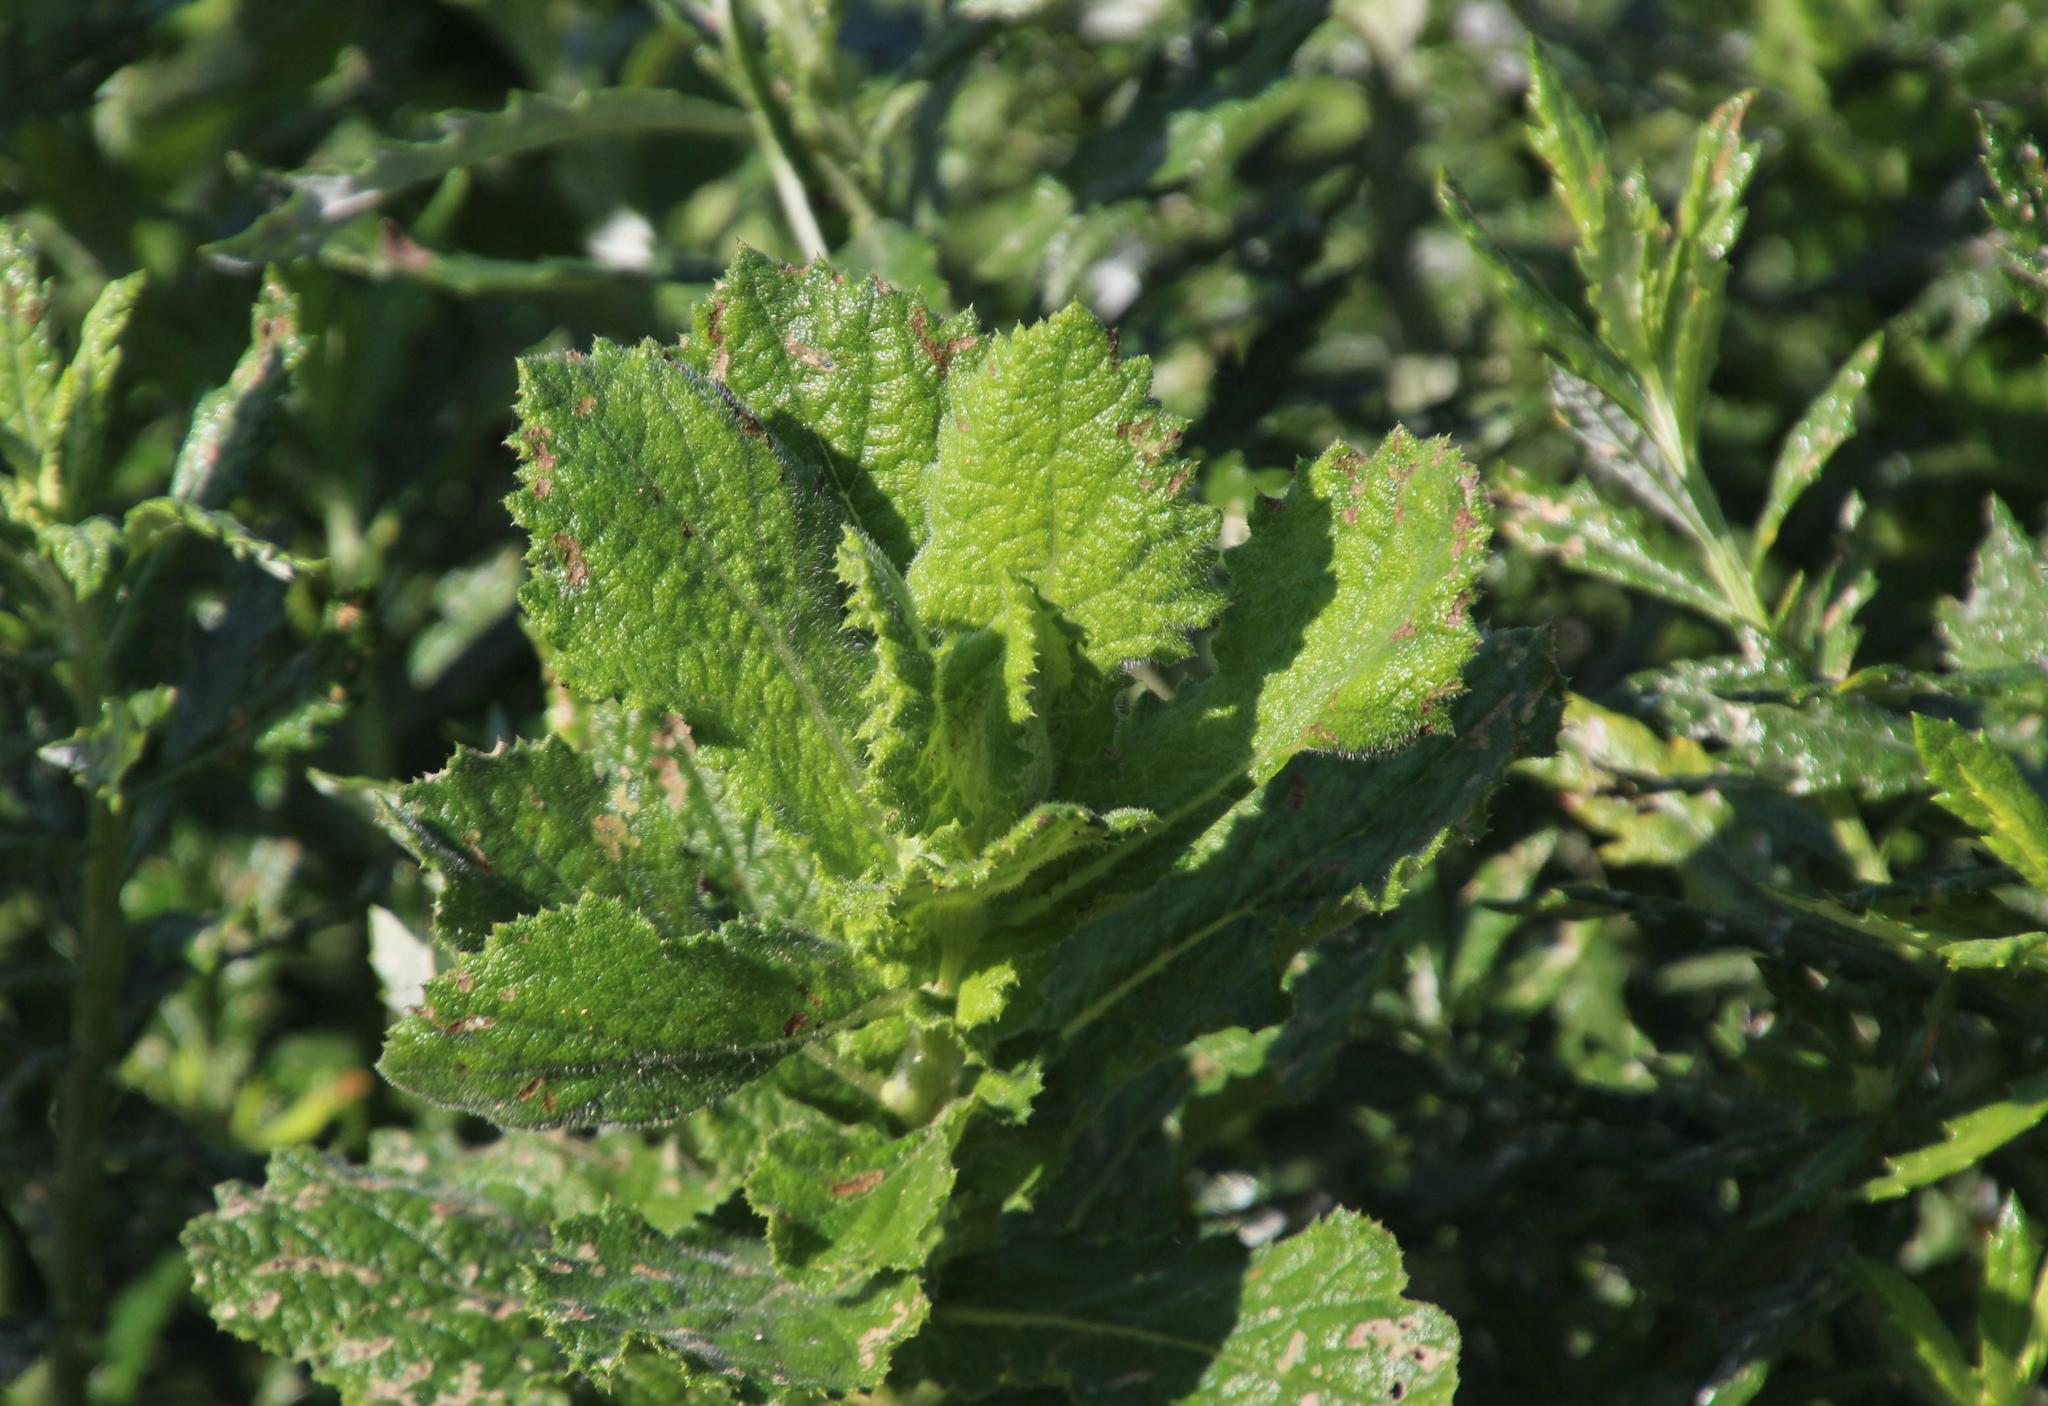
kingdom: Plantae
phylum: Tracheophyta
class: Magnoliopsida
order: Asterales
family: Asteraceae
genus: Senecio
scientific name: Senecio rigidus
